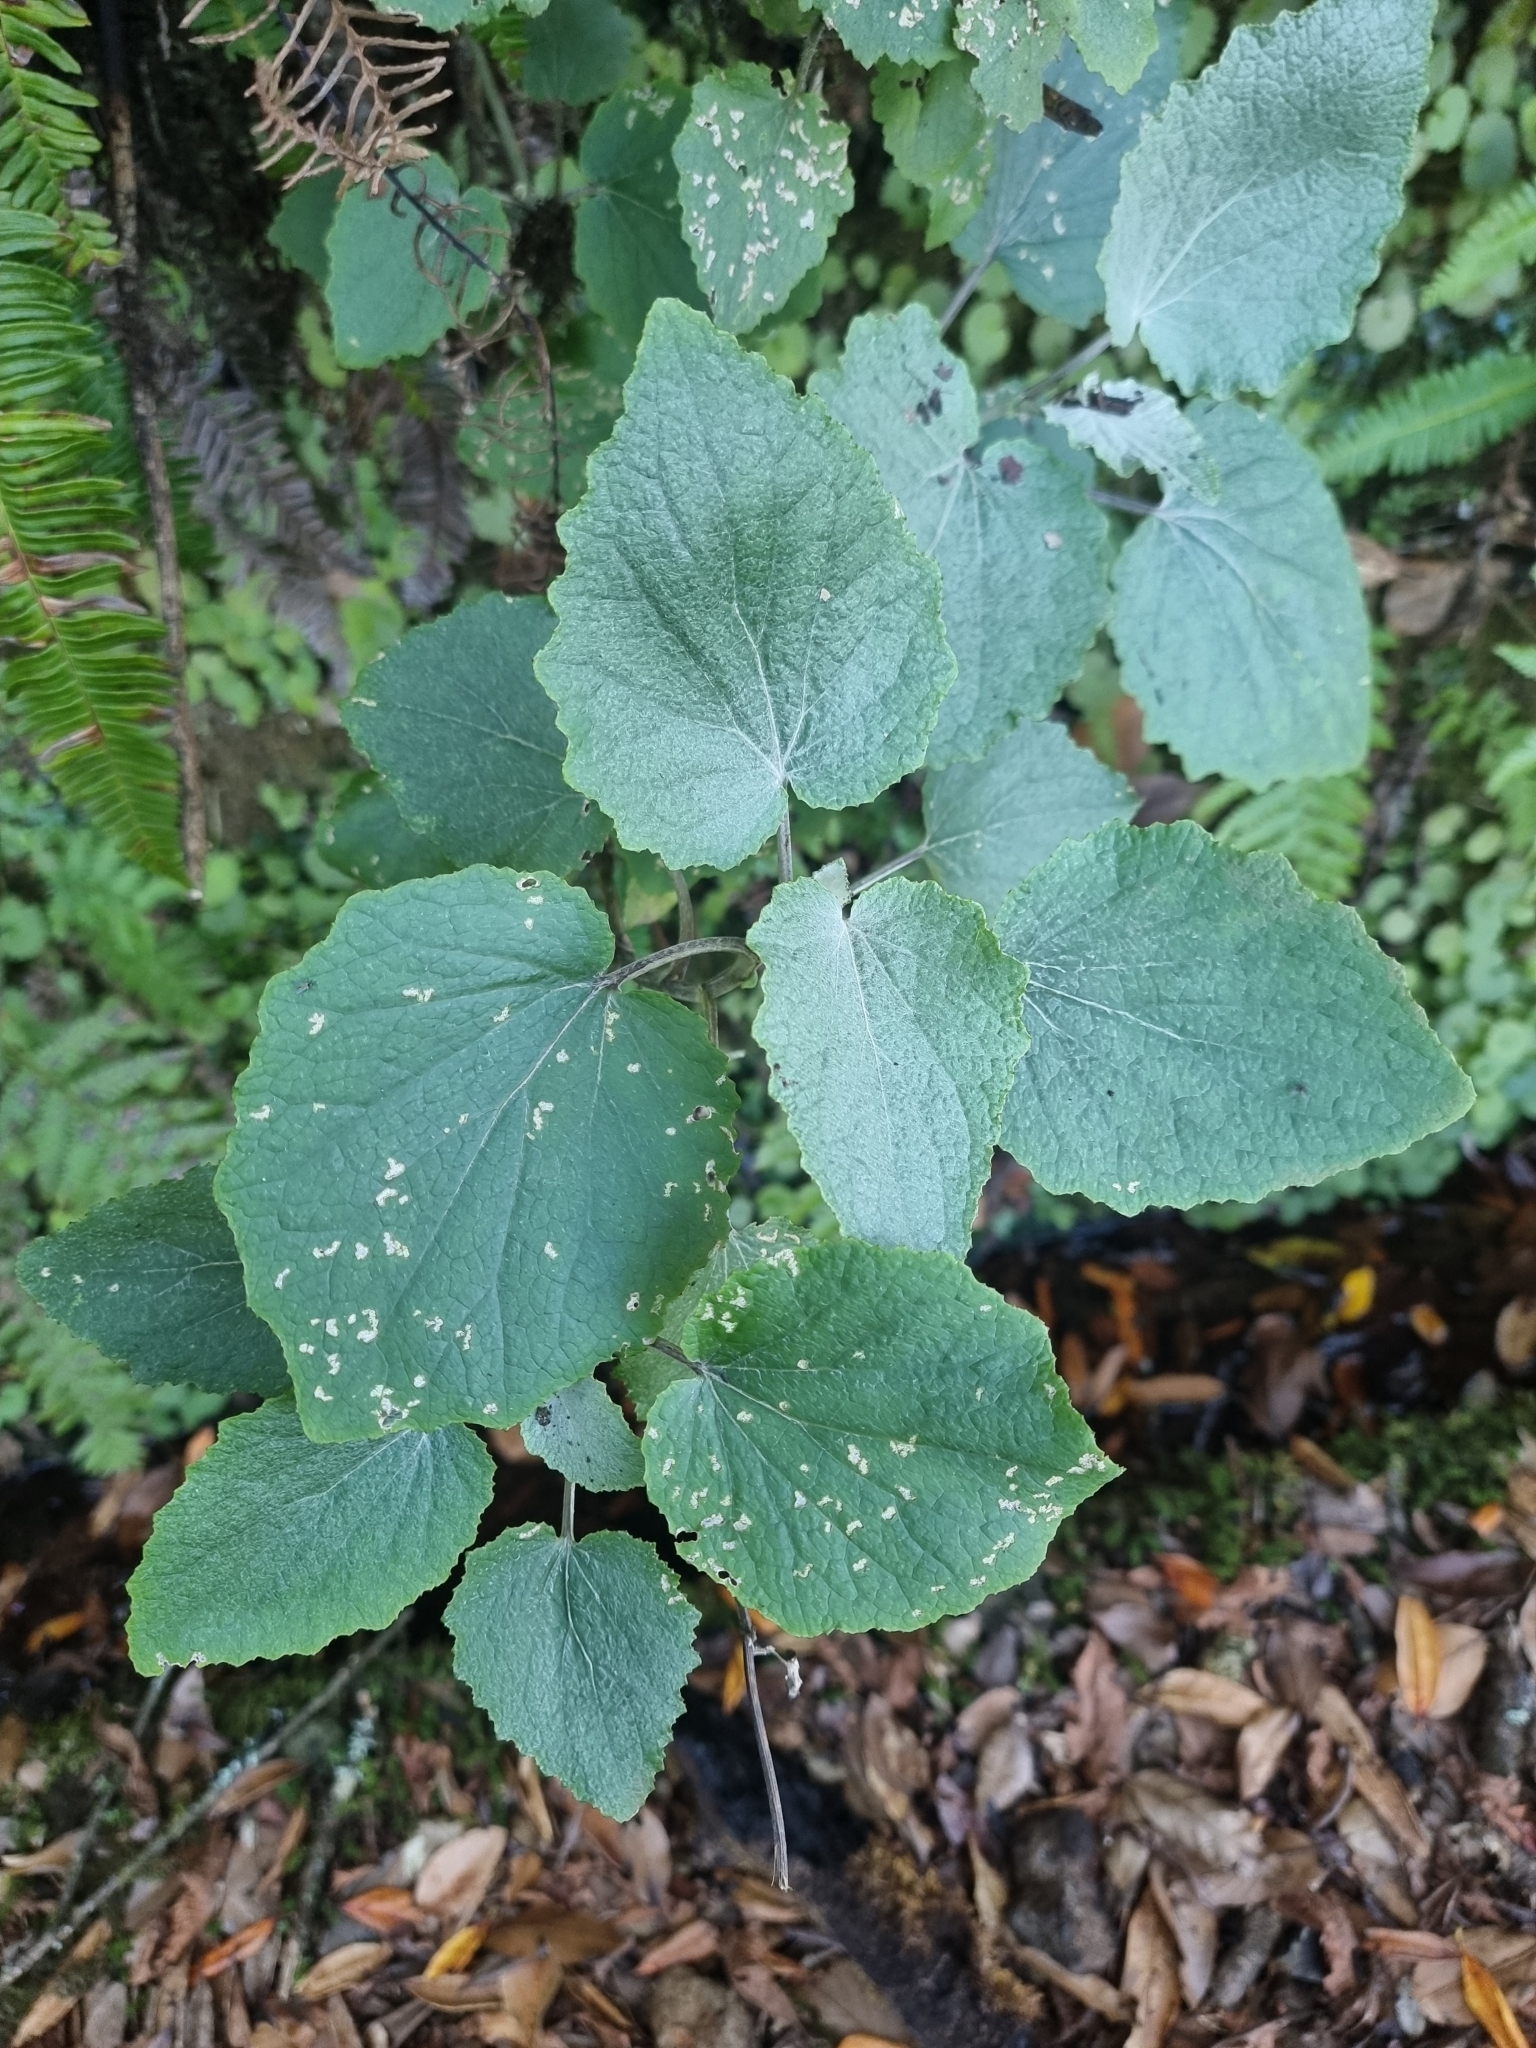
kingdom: Plantae
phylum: Tracheophyta
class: Magnoliopsida
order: Asterales
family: Asteraceae
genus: Pericallis
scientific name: Pericallis aurita
